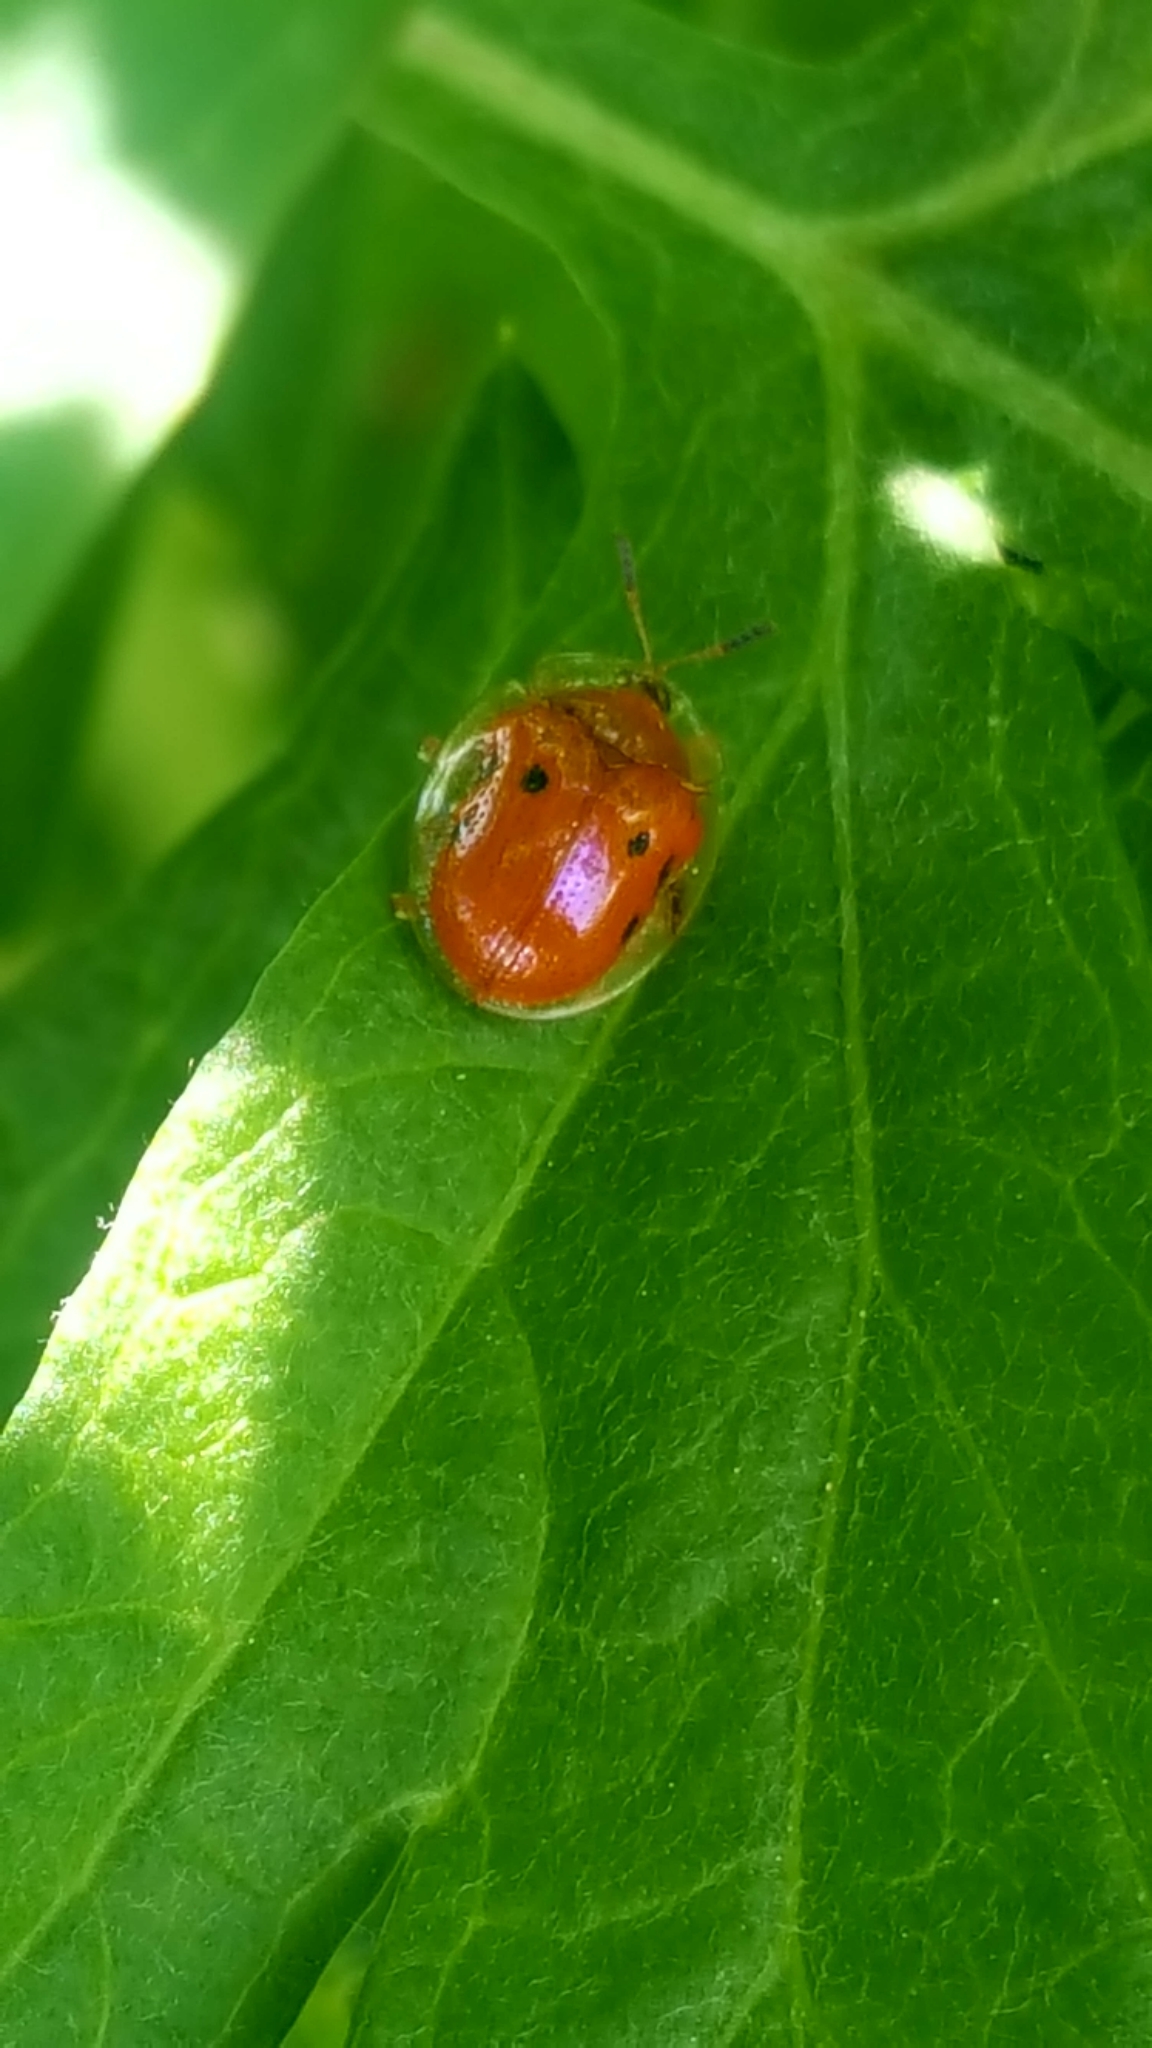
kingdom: Animalia
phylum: Arthropoda
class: Insecta
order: Coleoptera
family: Chrysomelidae
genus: Charidotella
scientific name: Charidotella sexpunctata
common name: Golden tortoise beetle
